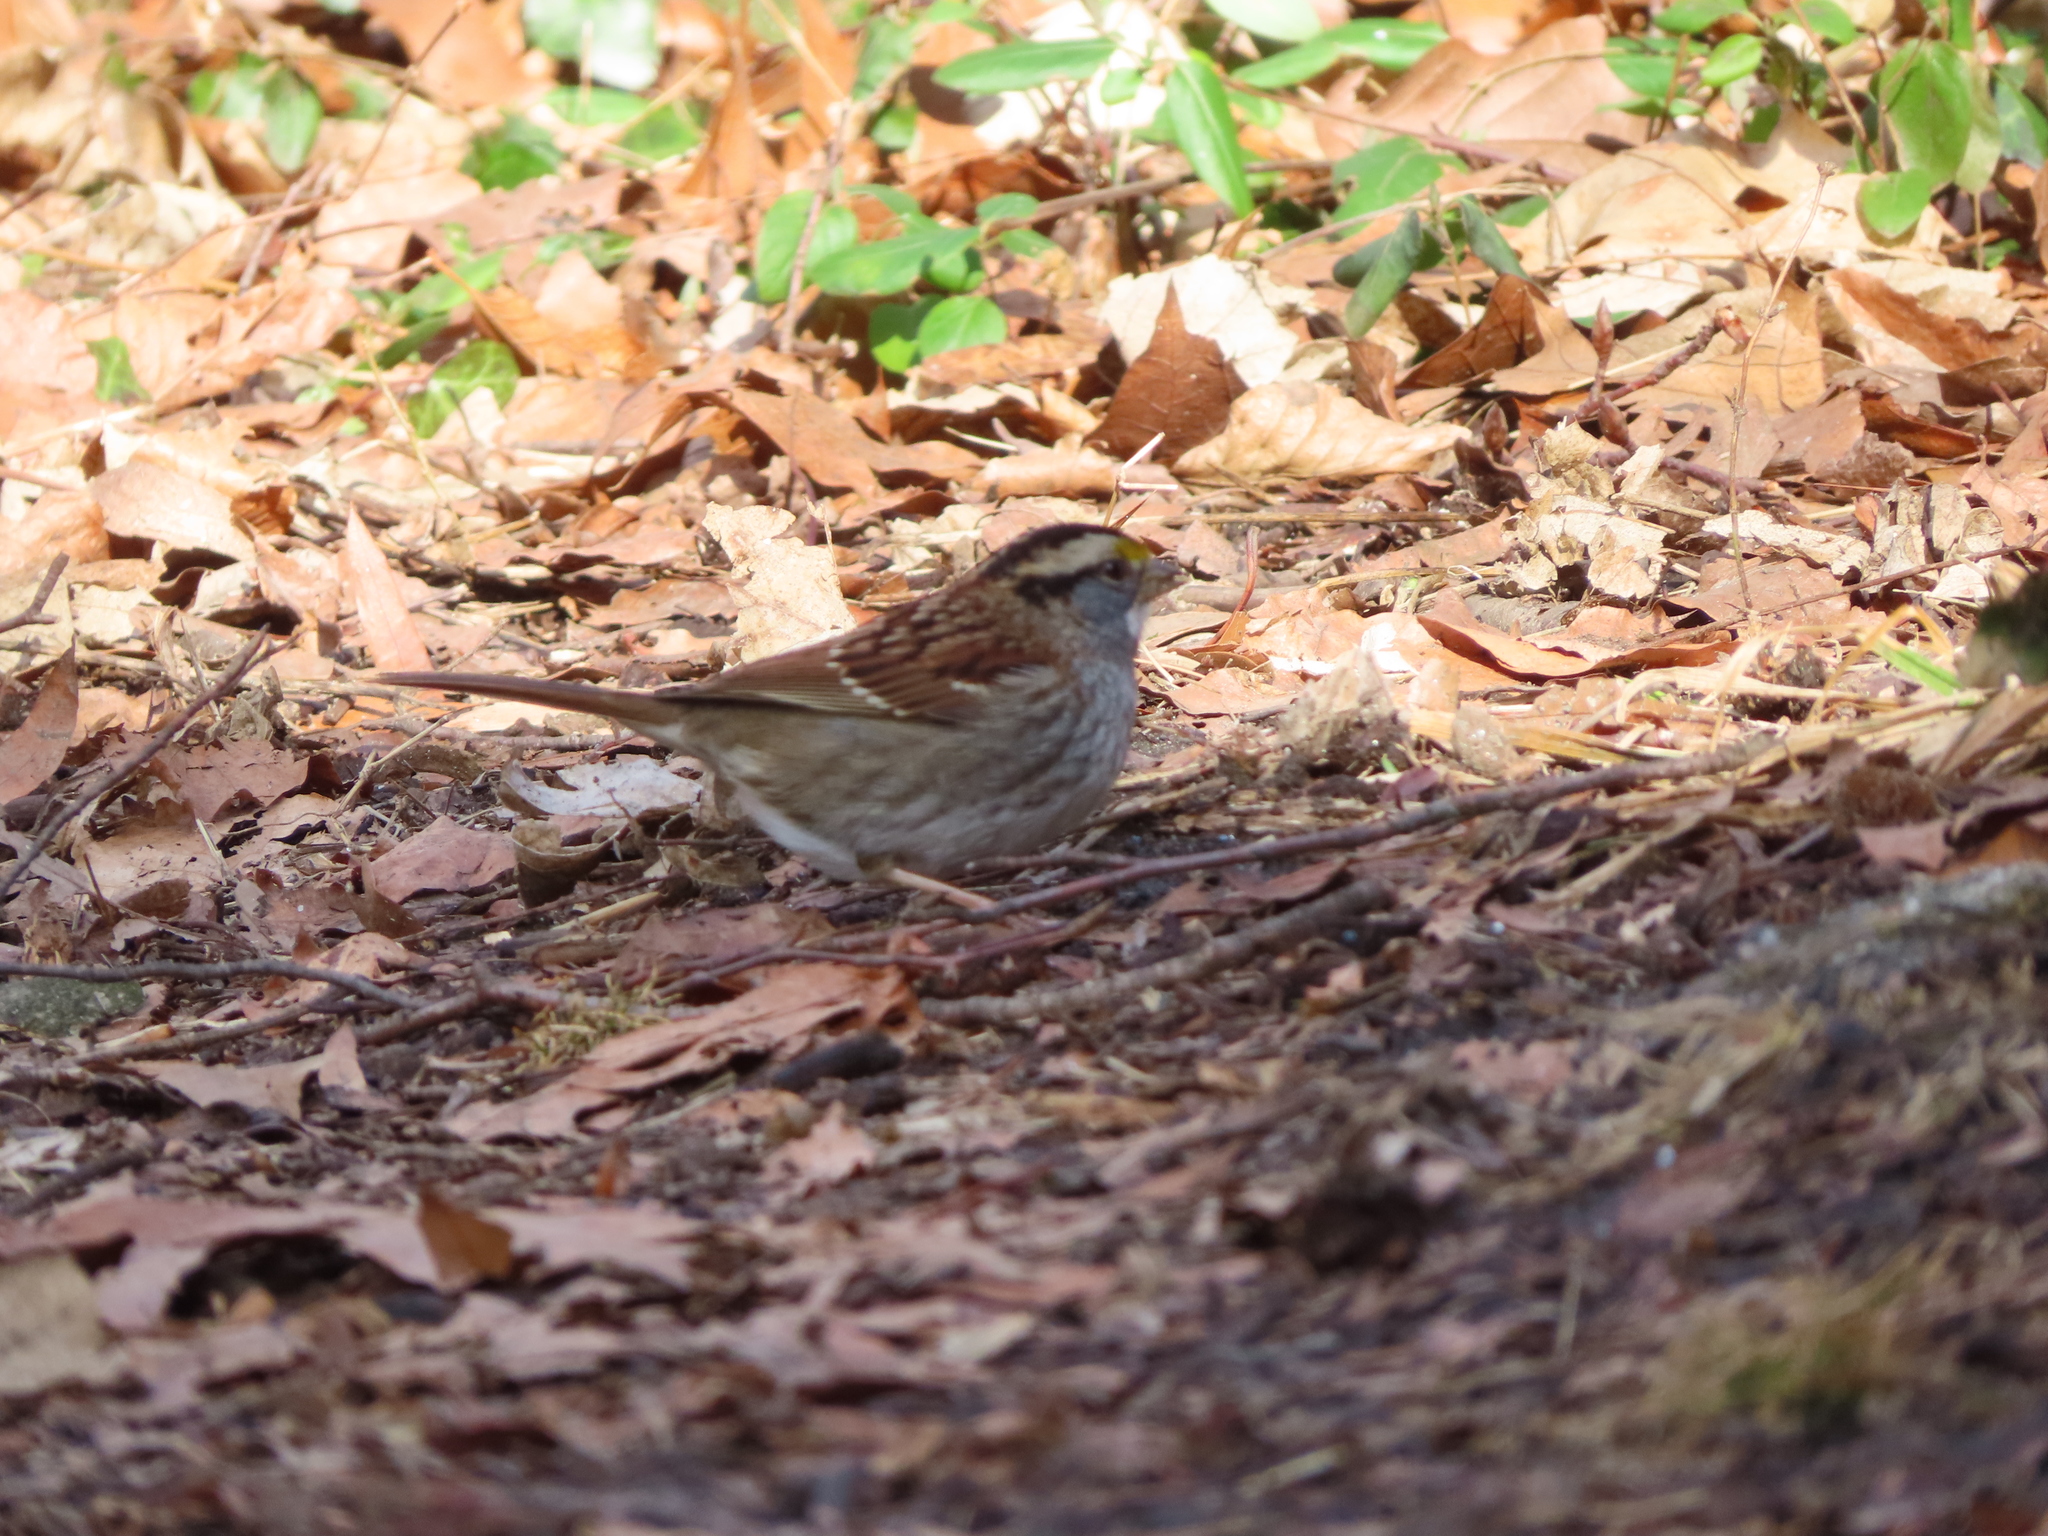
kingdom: Animalia
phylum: Chordata
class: Aves
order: Passeriformes
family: Passerellidae
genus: Zonotrichia
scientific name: Zonotrichia albicollis
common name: White-throated sparrow
